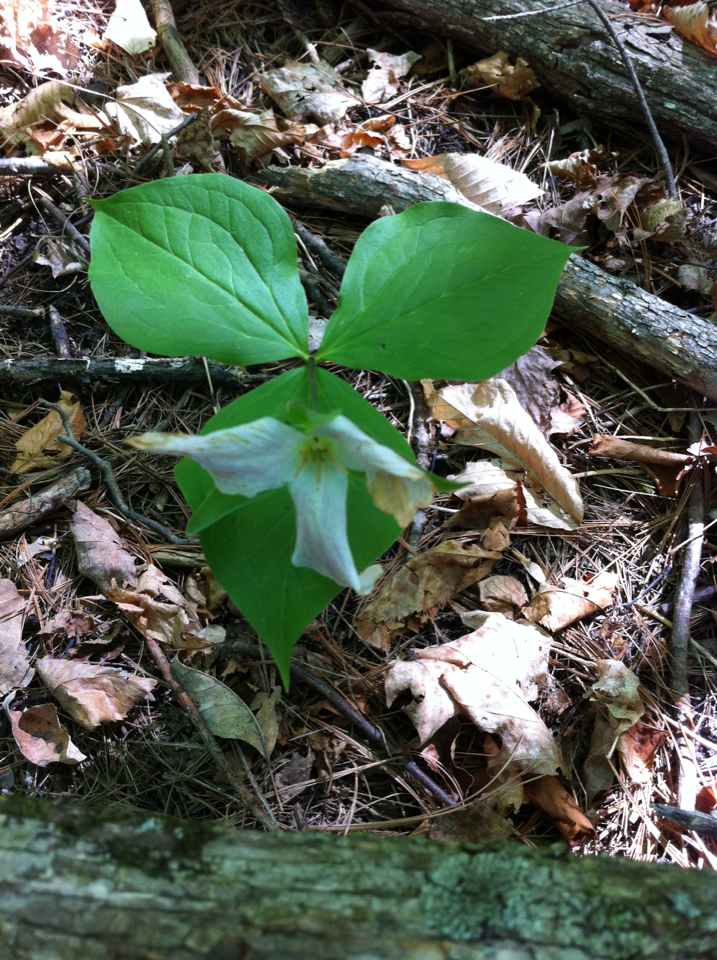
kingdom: Plantae
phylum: Tracheophyta
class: Liliopsida
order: Liliales
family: Melanthiaceae
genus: Trillium
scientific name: Trillium grandiflorum
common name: Great white trillium
